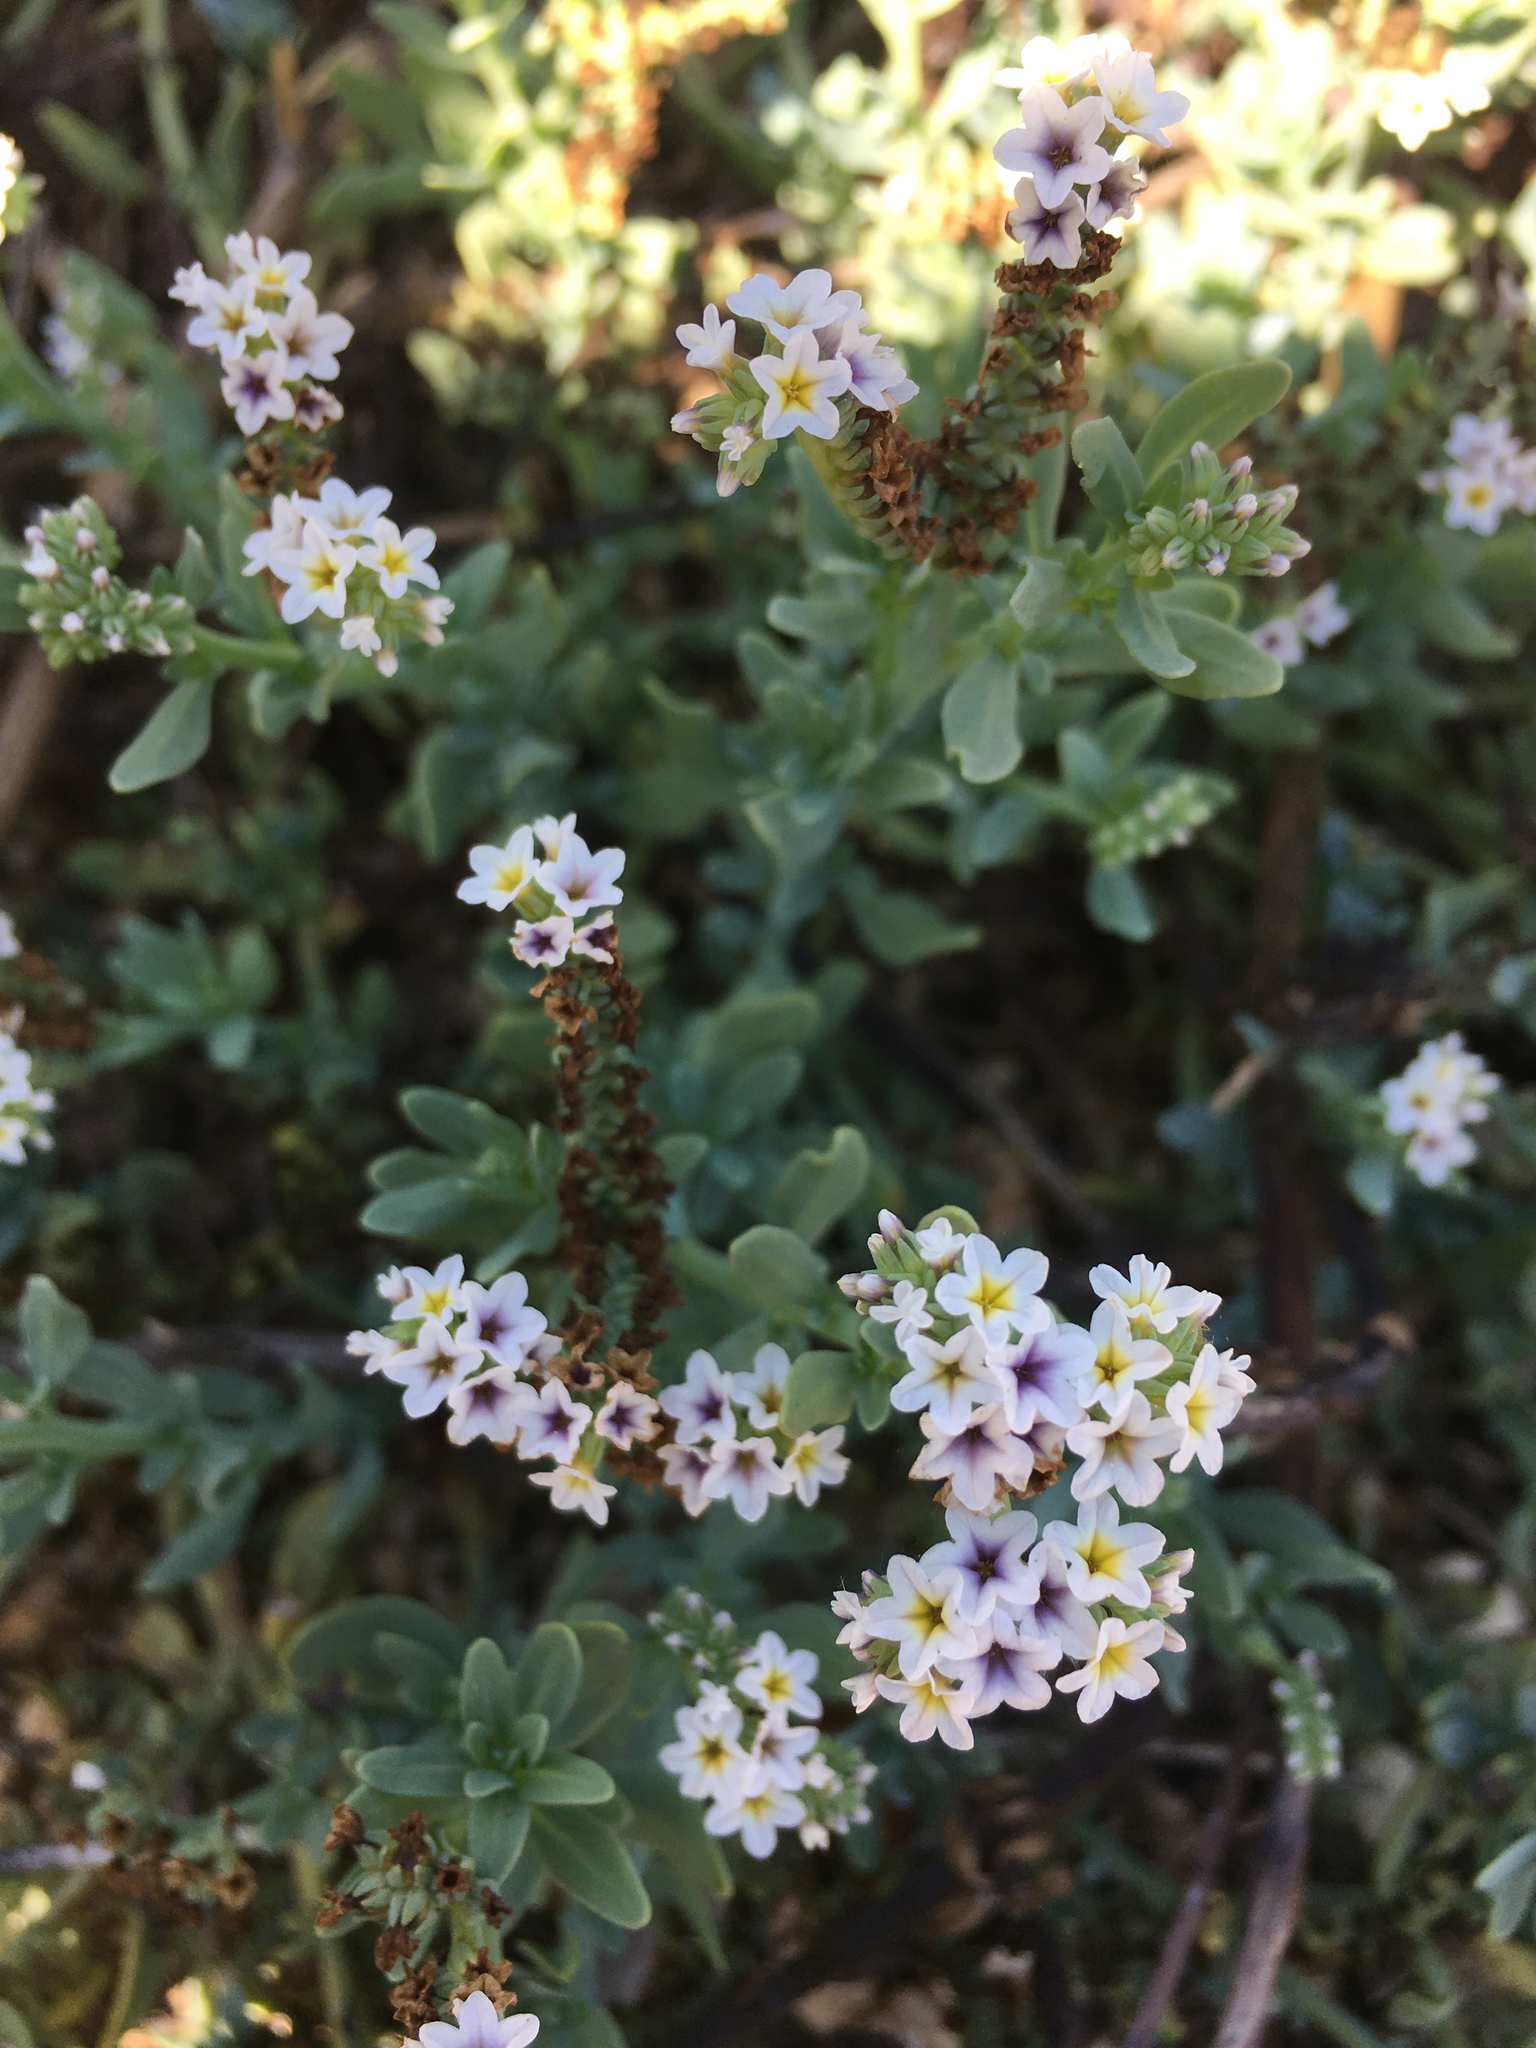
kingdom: Plantae
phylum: Tracheophyta
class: Magnoliopsida
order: Boraginales
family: Heliotropiaceae
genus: Heliotropium
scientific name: Heliotropium curassavicum
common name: Seaside heliotrope
